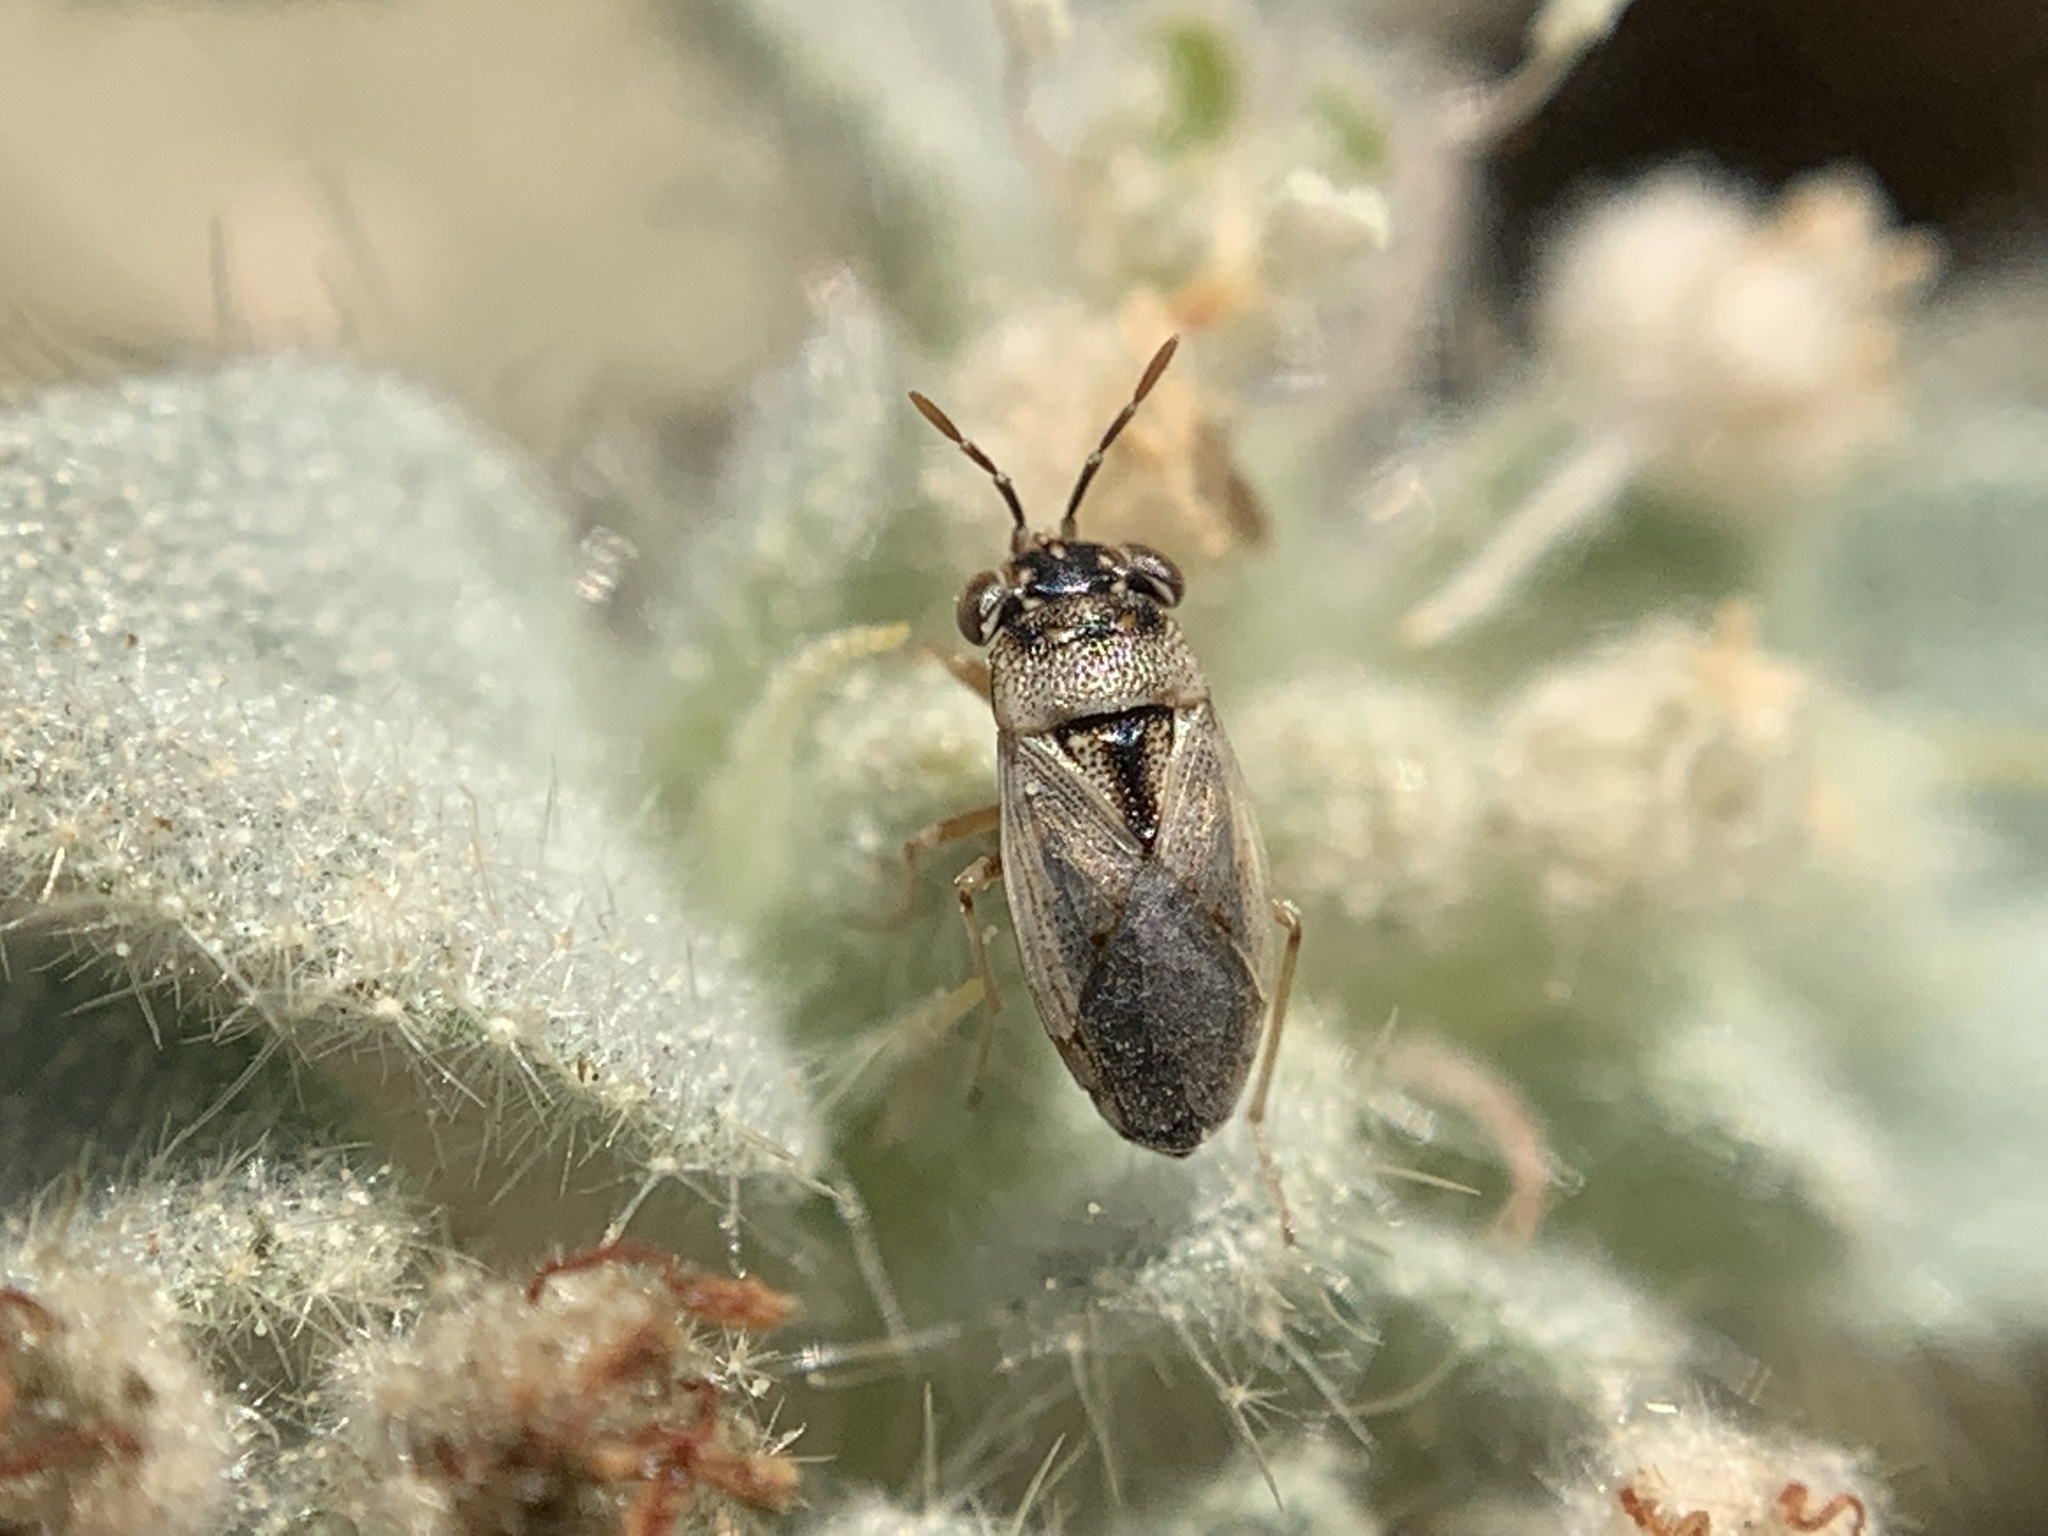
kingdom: Animalia
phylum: Arthropoda
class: Insecta
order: Hemiptera
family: Geocoridae
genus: Geocoris
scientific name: Geocoris pallens
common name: Big-eyed bug
